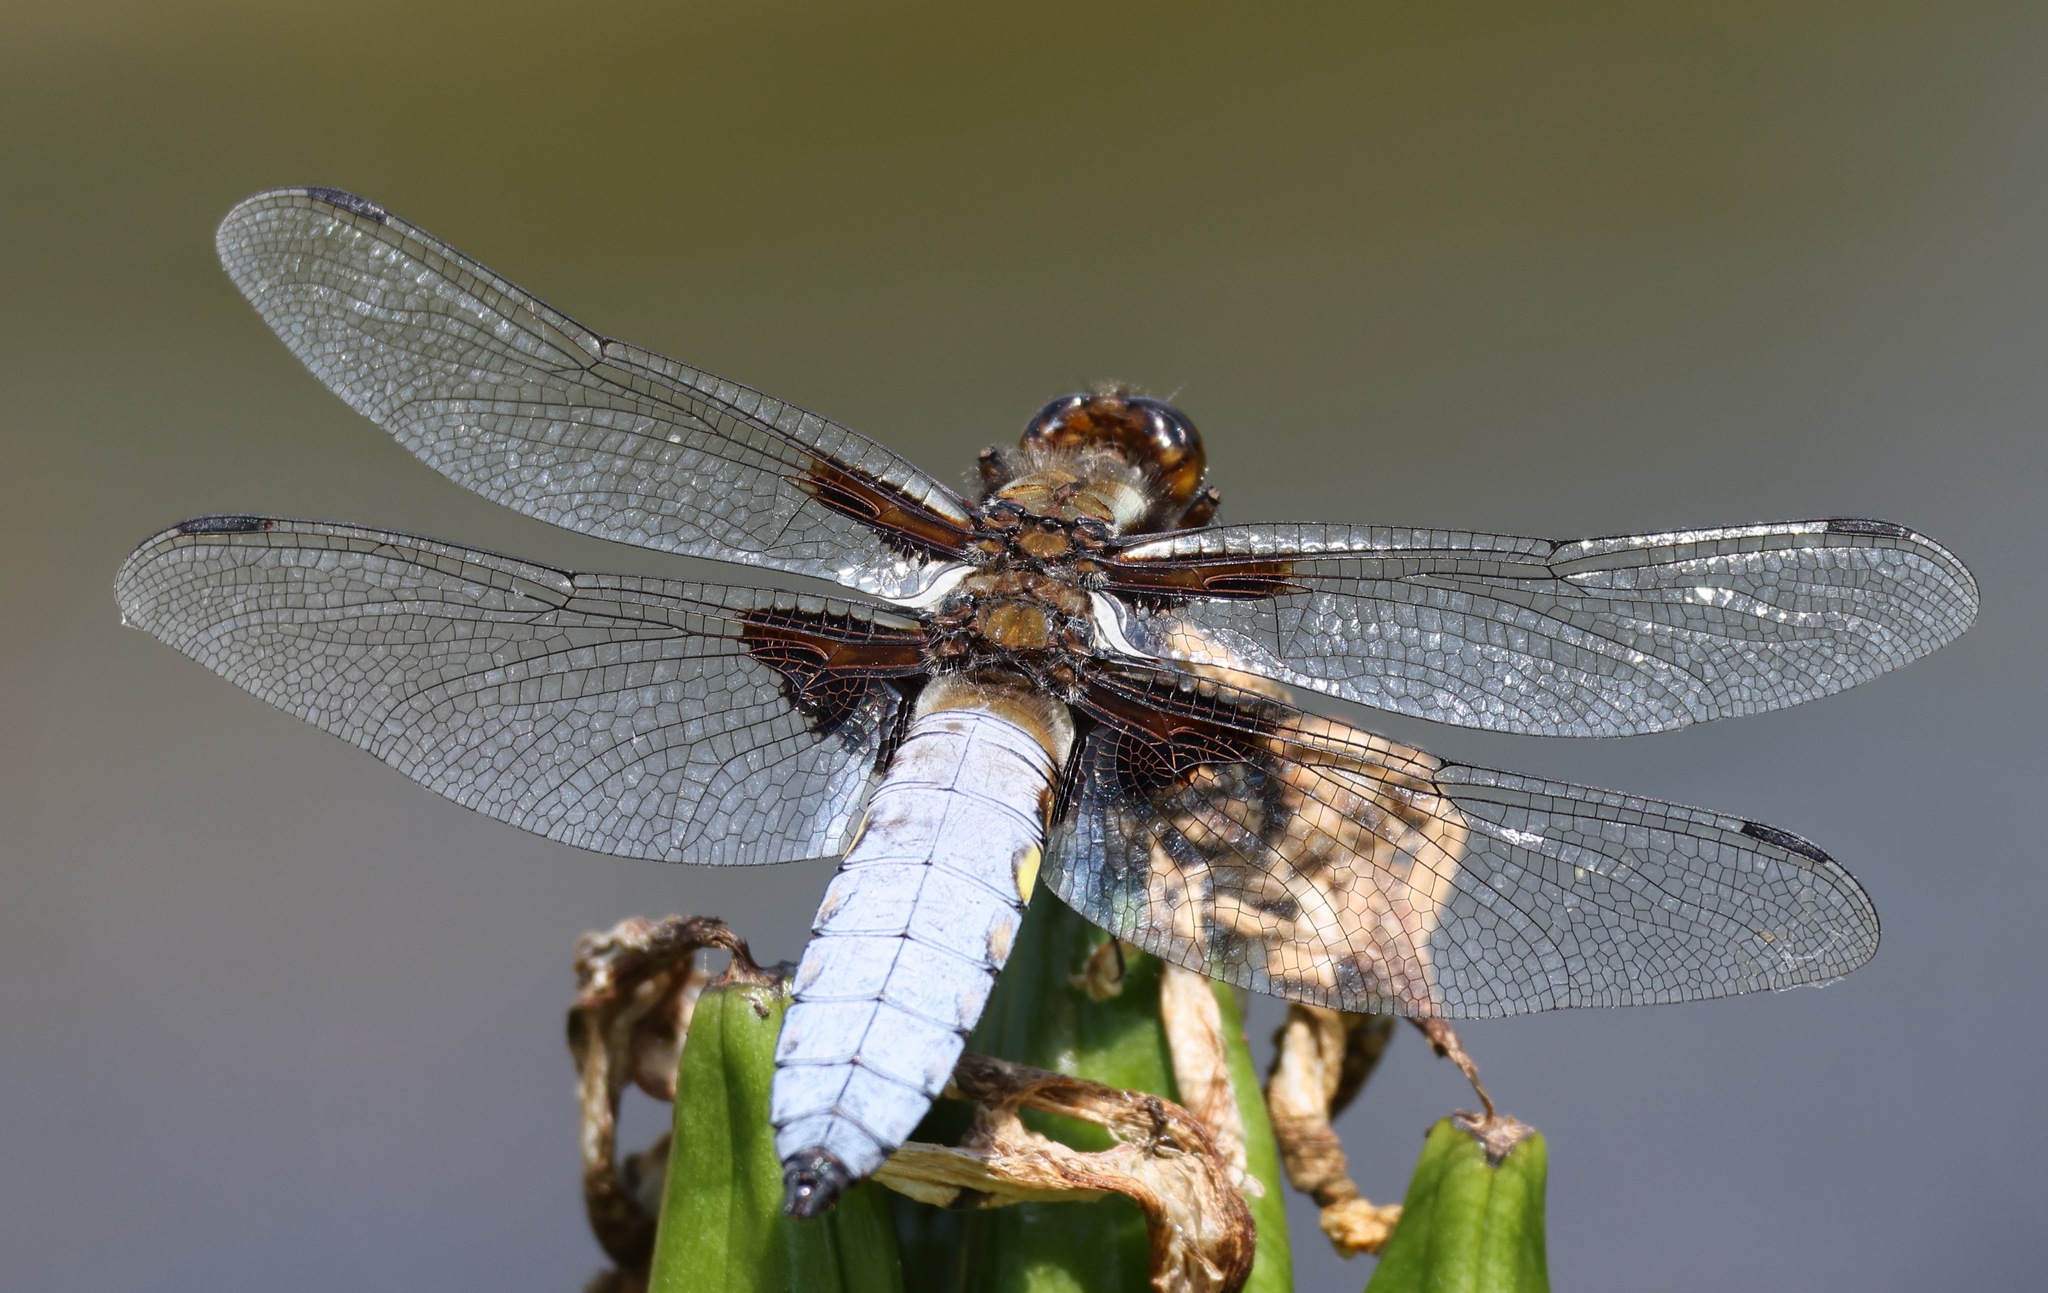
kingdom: Animalia
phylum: Arthropoda
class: Insecta
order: Odonata
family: Libellulidae
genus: Libellula
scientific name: Libellula depressa
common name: Broad-bodied chaser
